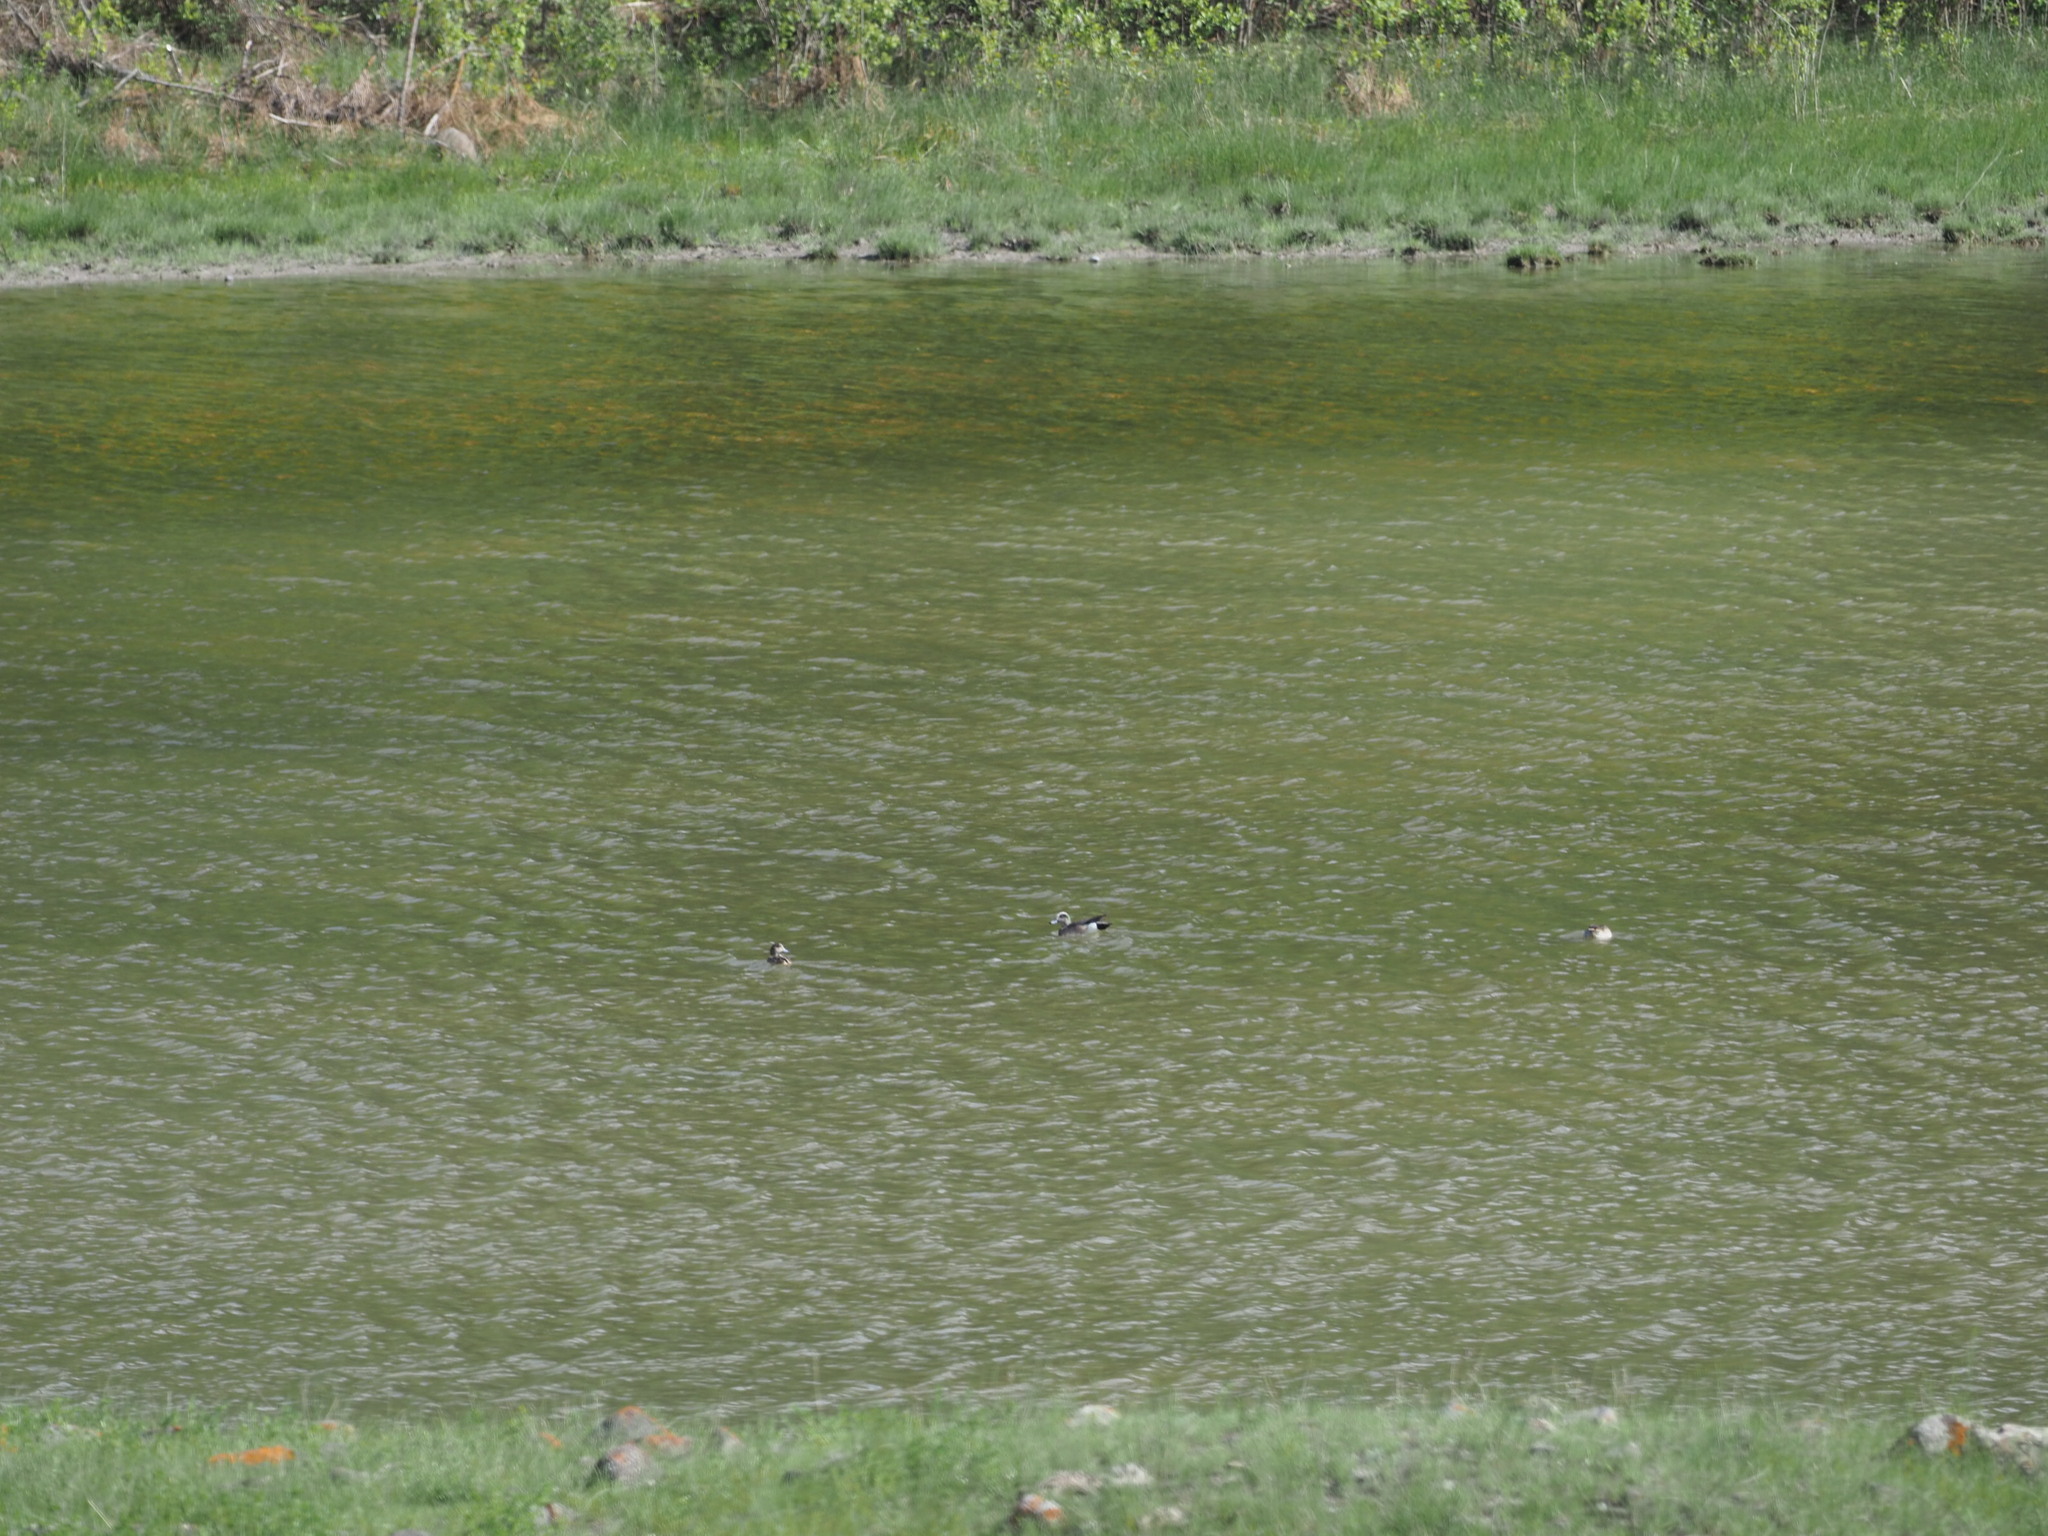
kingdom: Animalia
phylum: Chordata
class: Aves
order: Anseriformes
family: Anatidae
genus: Mareca
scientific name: Mareca americana
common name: American wigeon
